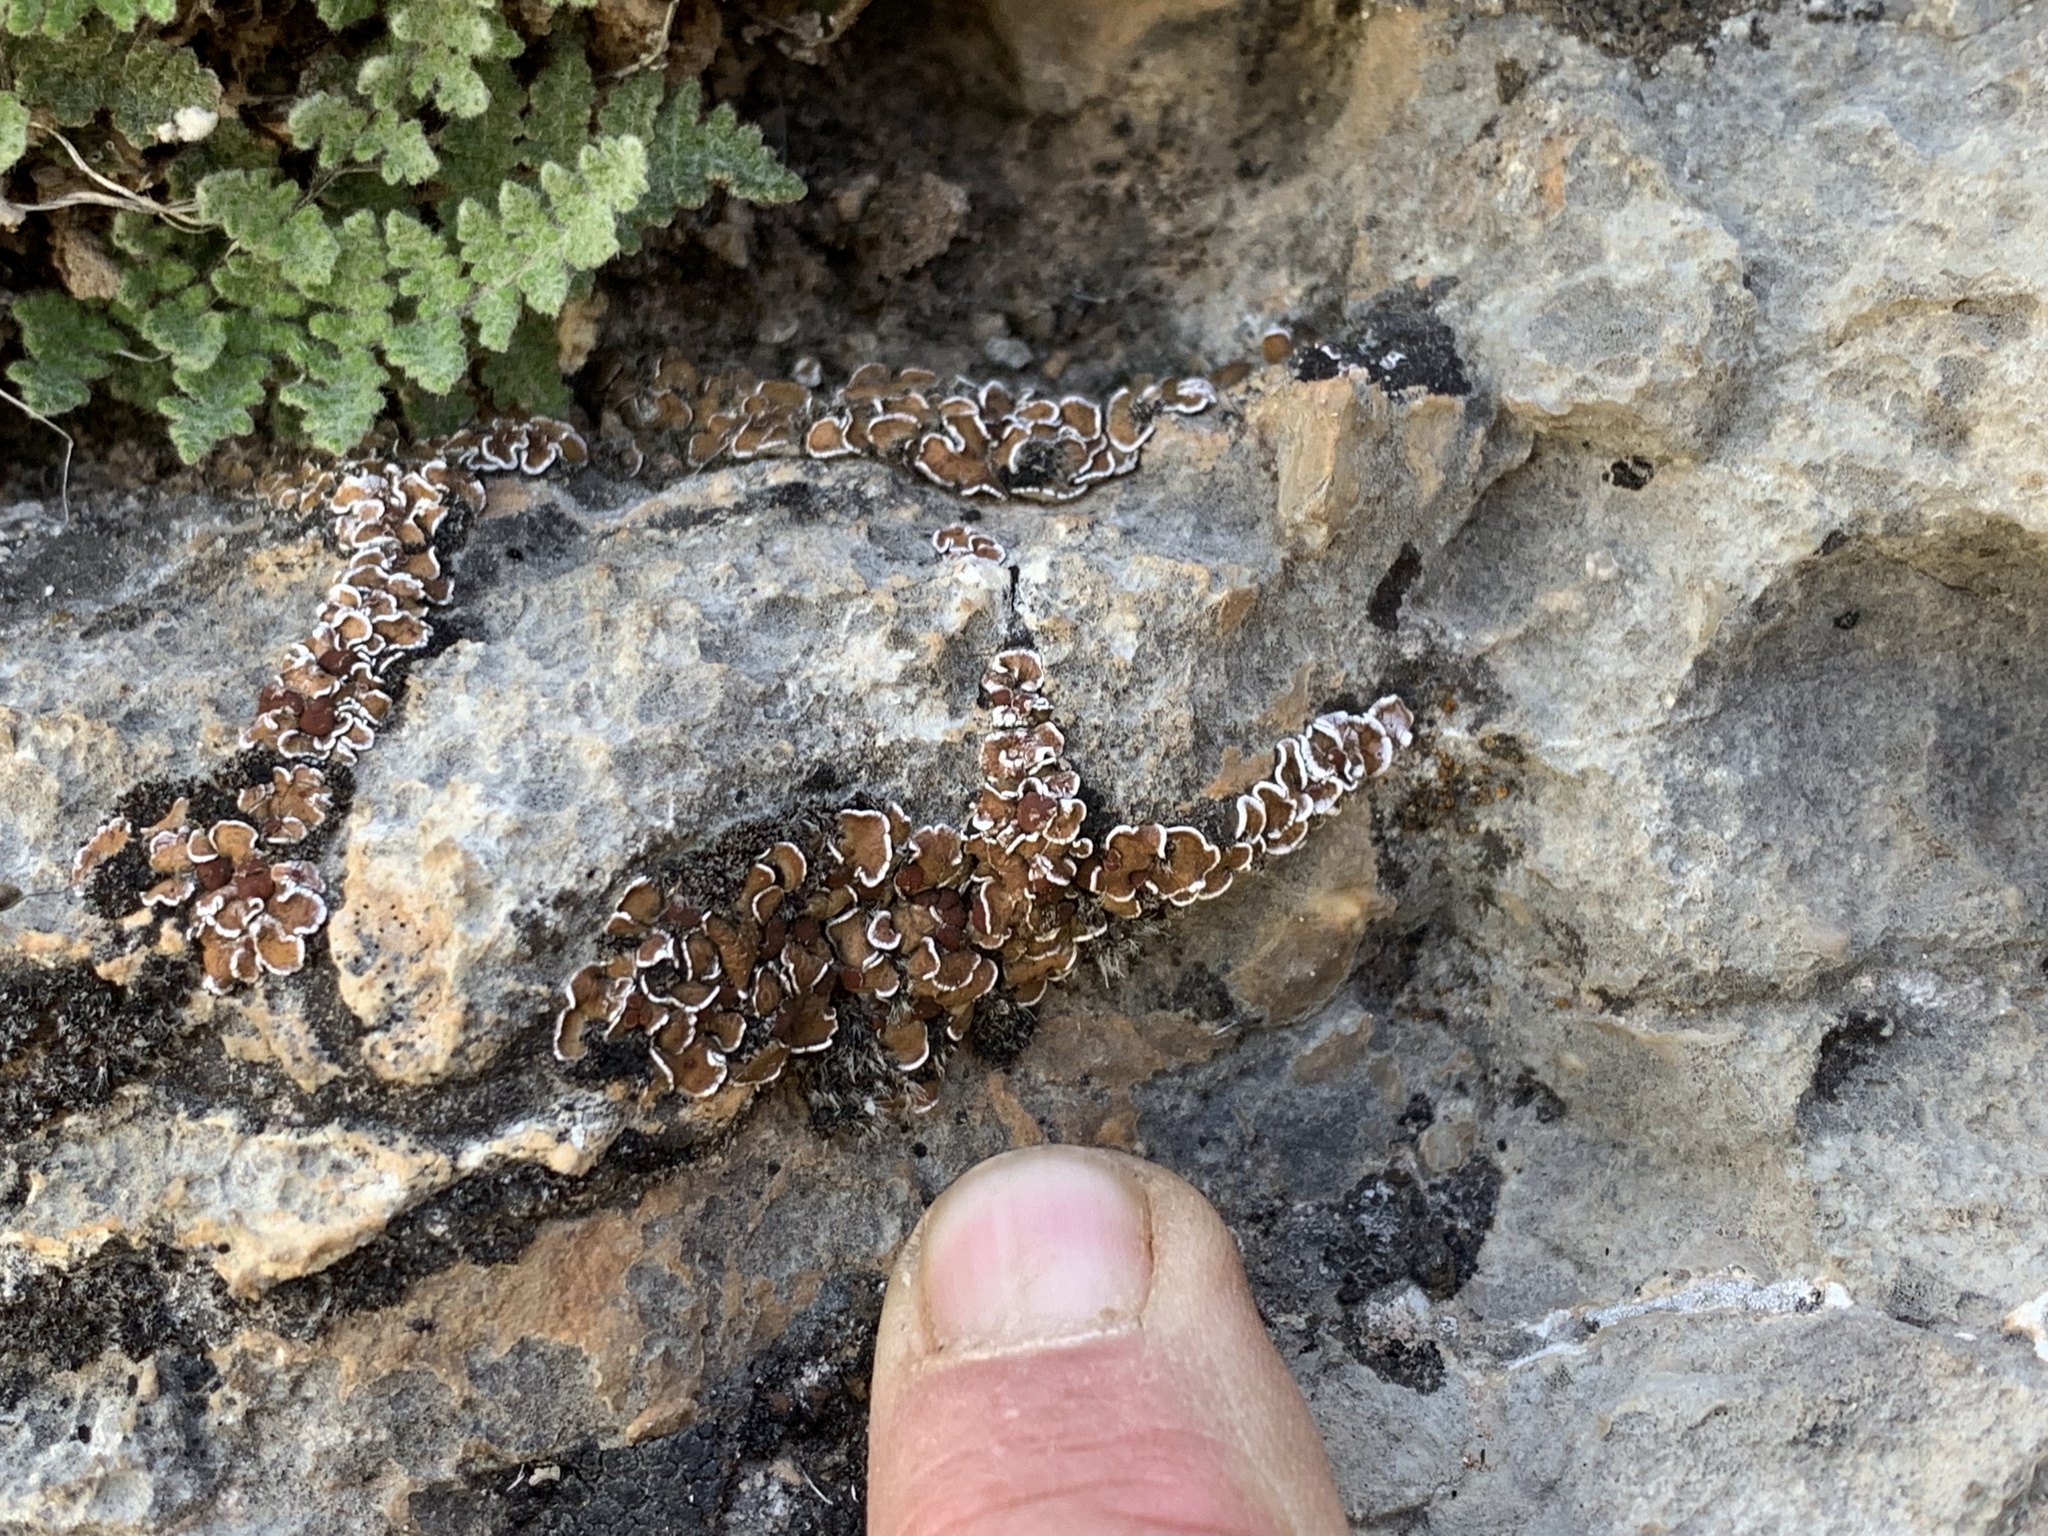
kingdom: Fungi
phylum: Ascomycota
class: Lecanoromycetes
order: Lecanorales
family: Psoraceae
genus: Psora
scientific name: Psora pseudorussellii
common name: Bordered scale lichen
